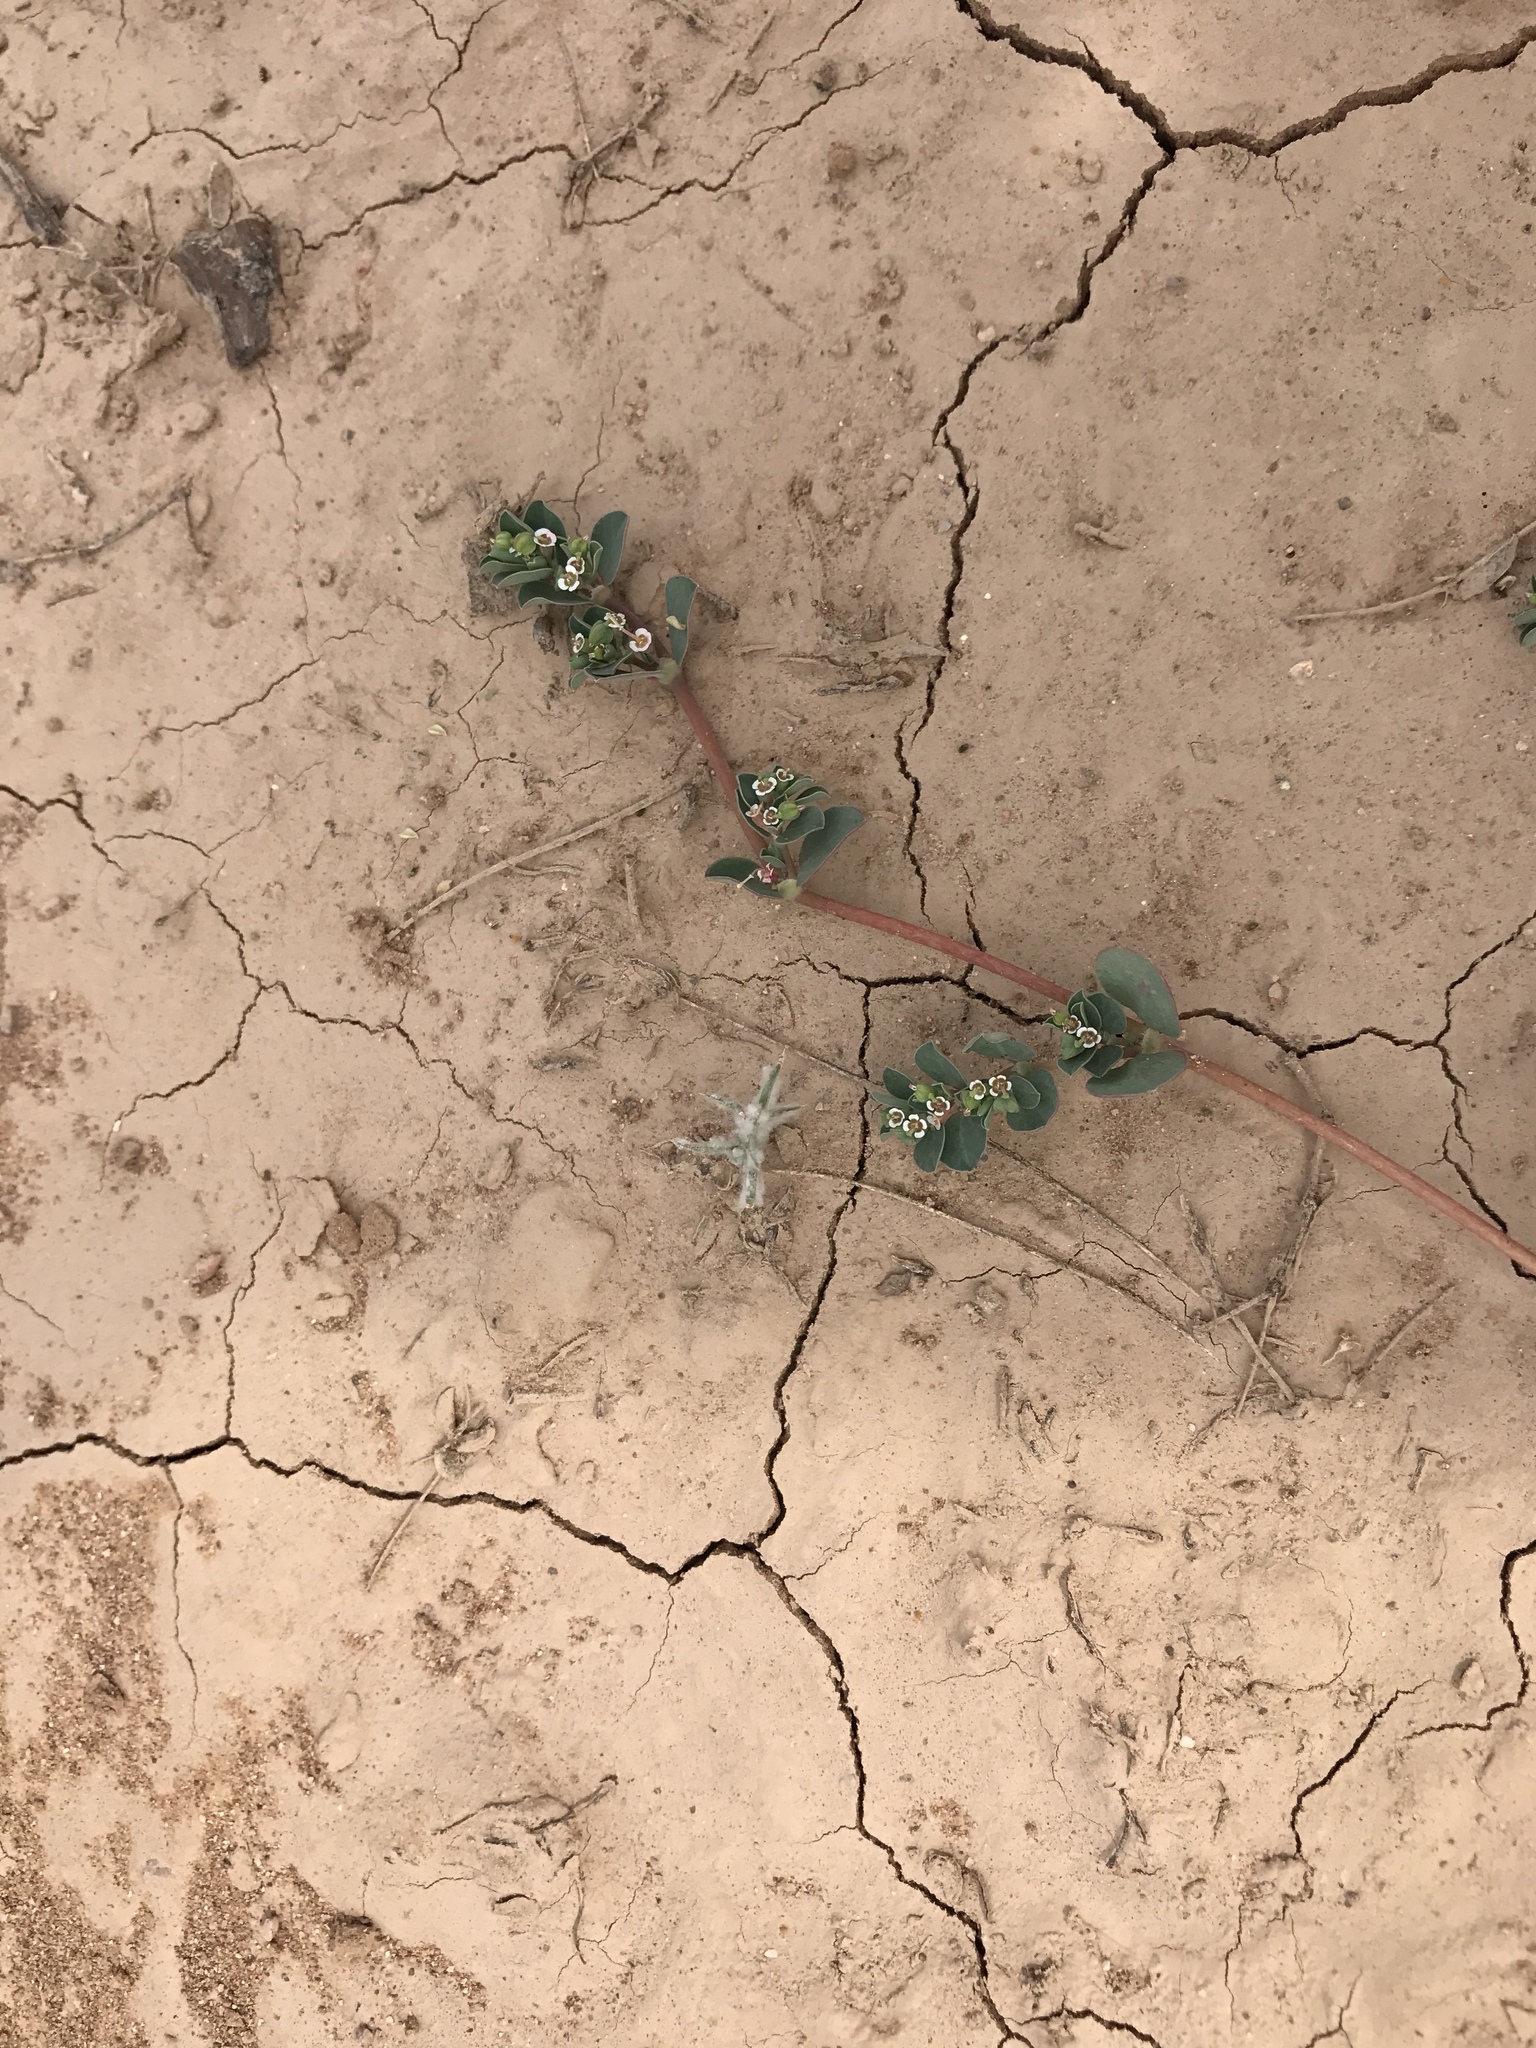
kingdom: Plantae
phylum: Tracheophyta
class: Magnoliopsida
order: Malpighiales
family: Euphorbiaceae
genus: Euphorbia
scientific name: Euphorbia albomarginata
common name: Whitemargin sandmat
